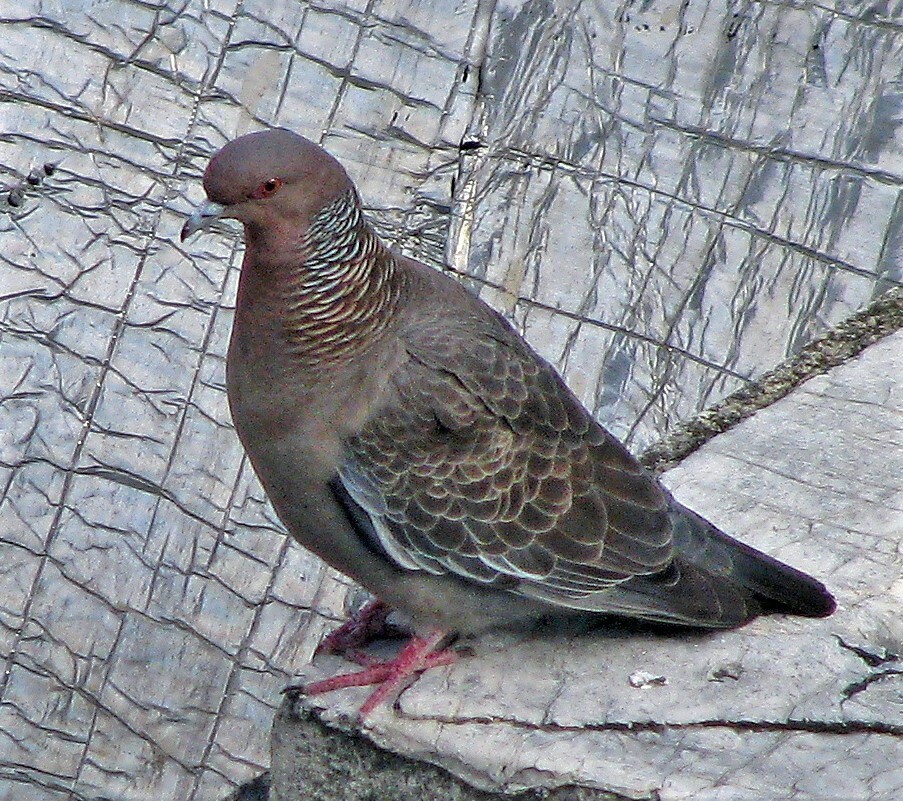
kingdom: Animalia
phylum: Chordata
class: Aves
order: Columbiformes
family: Columbidae
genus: Patagioenas
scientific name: Patagioenas picazuro
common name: Picazuro pigeon
